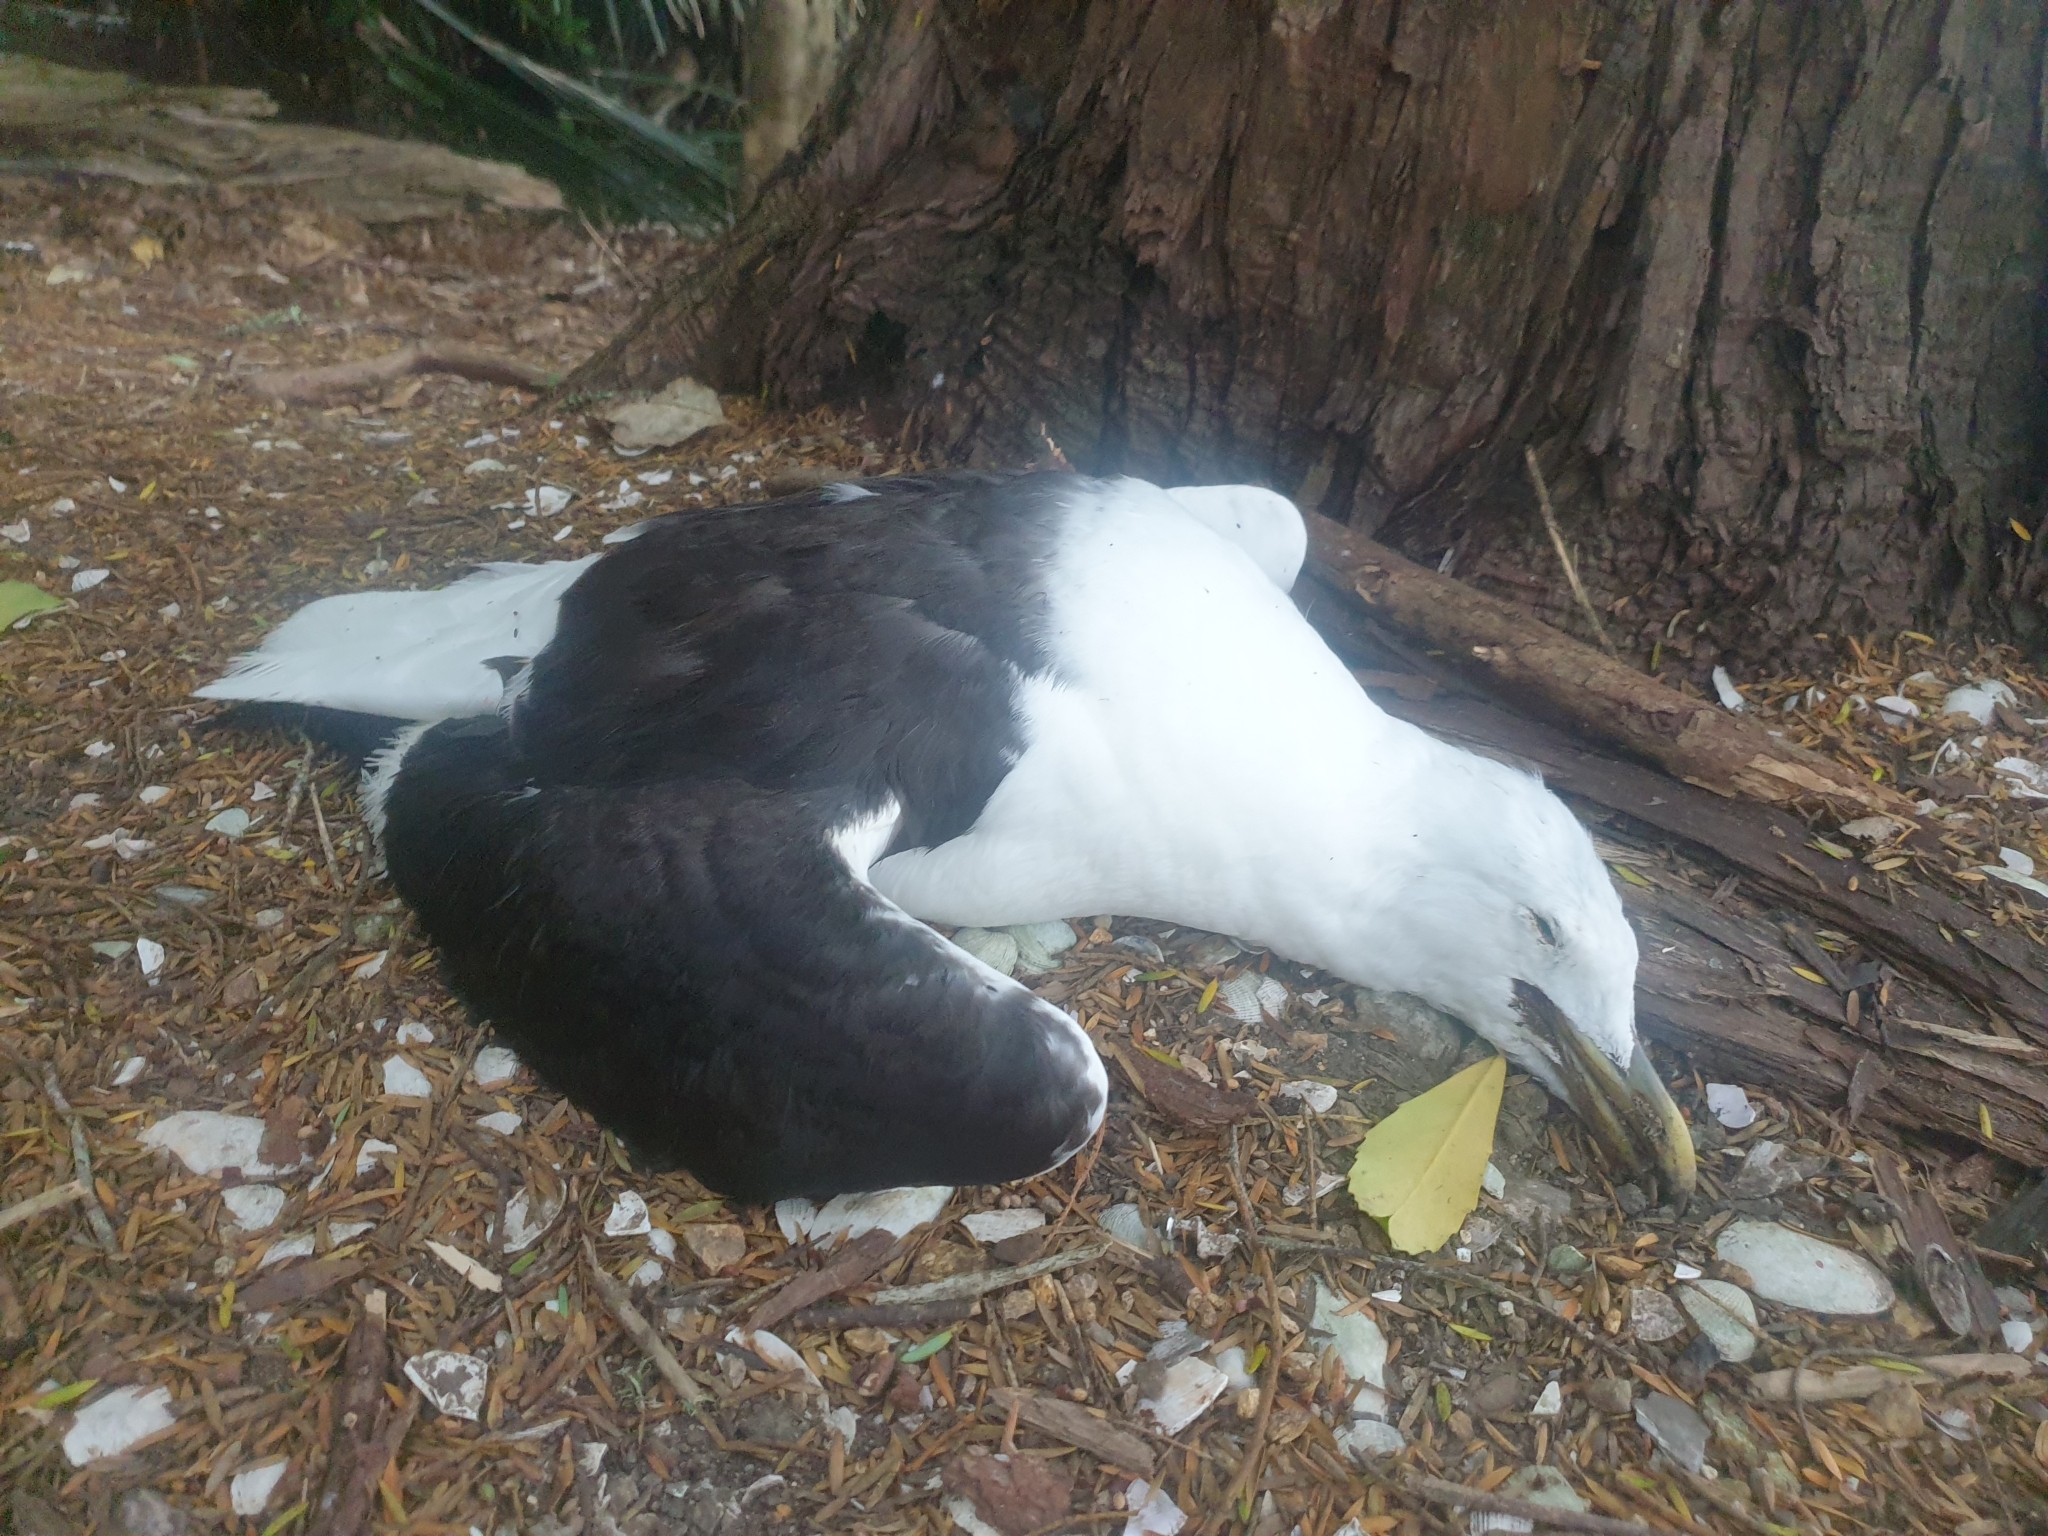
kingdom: Animalia
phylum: Chordata
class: Aves
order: Charadriiformes
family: Laridae
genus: Larus
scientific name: Larus dominicanus
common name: Kelp gull
